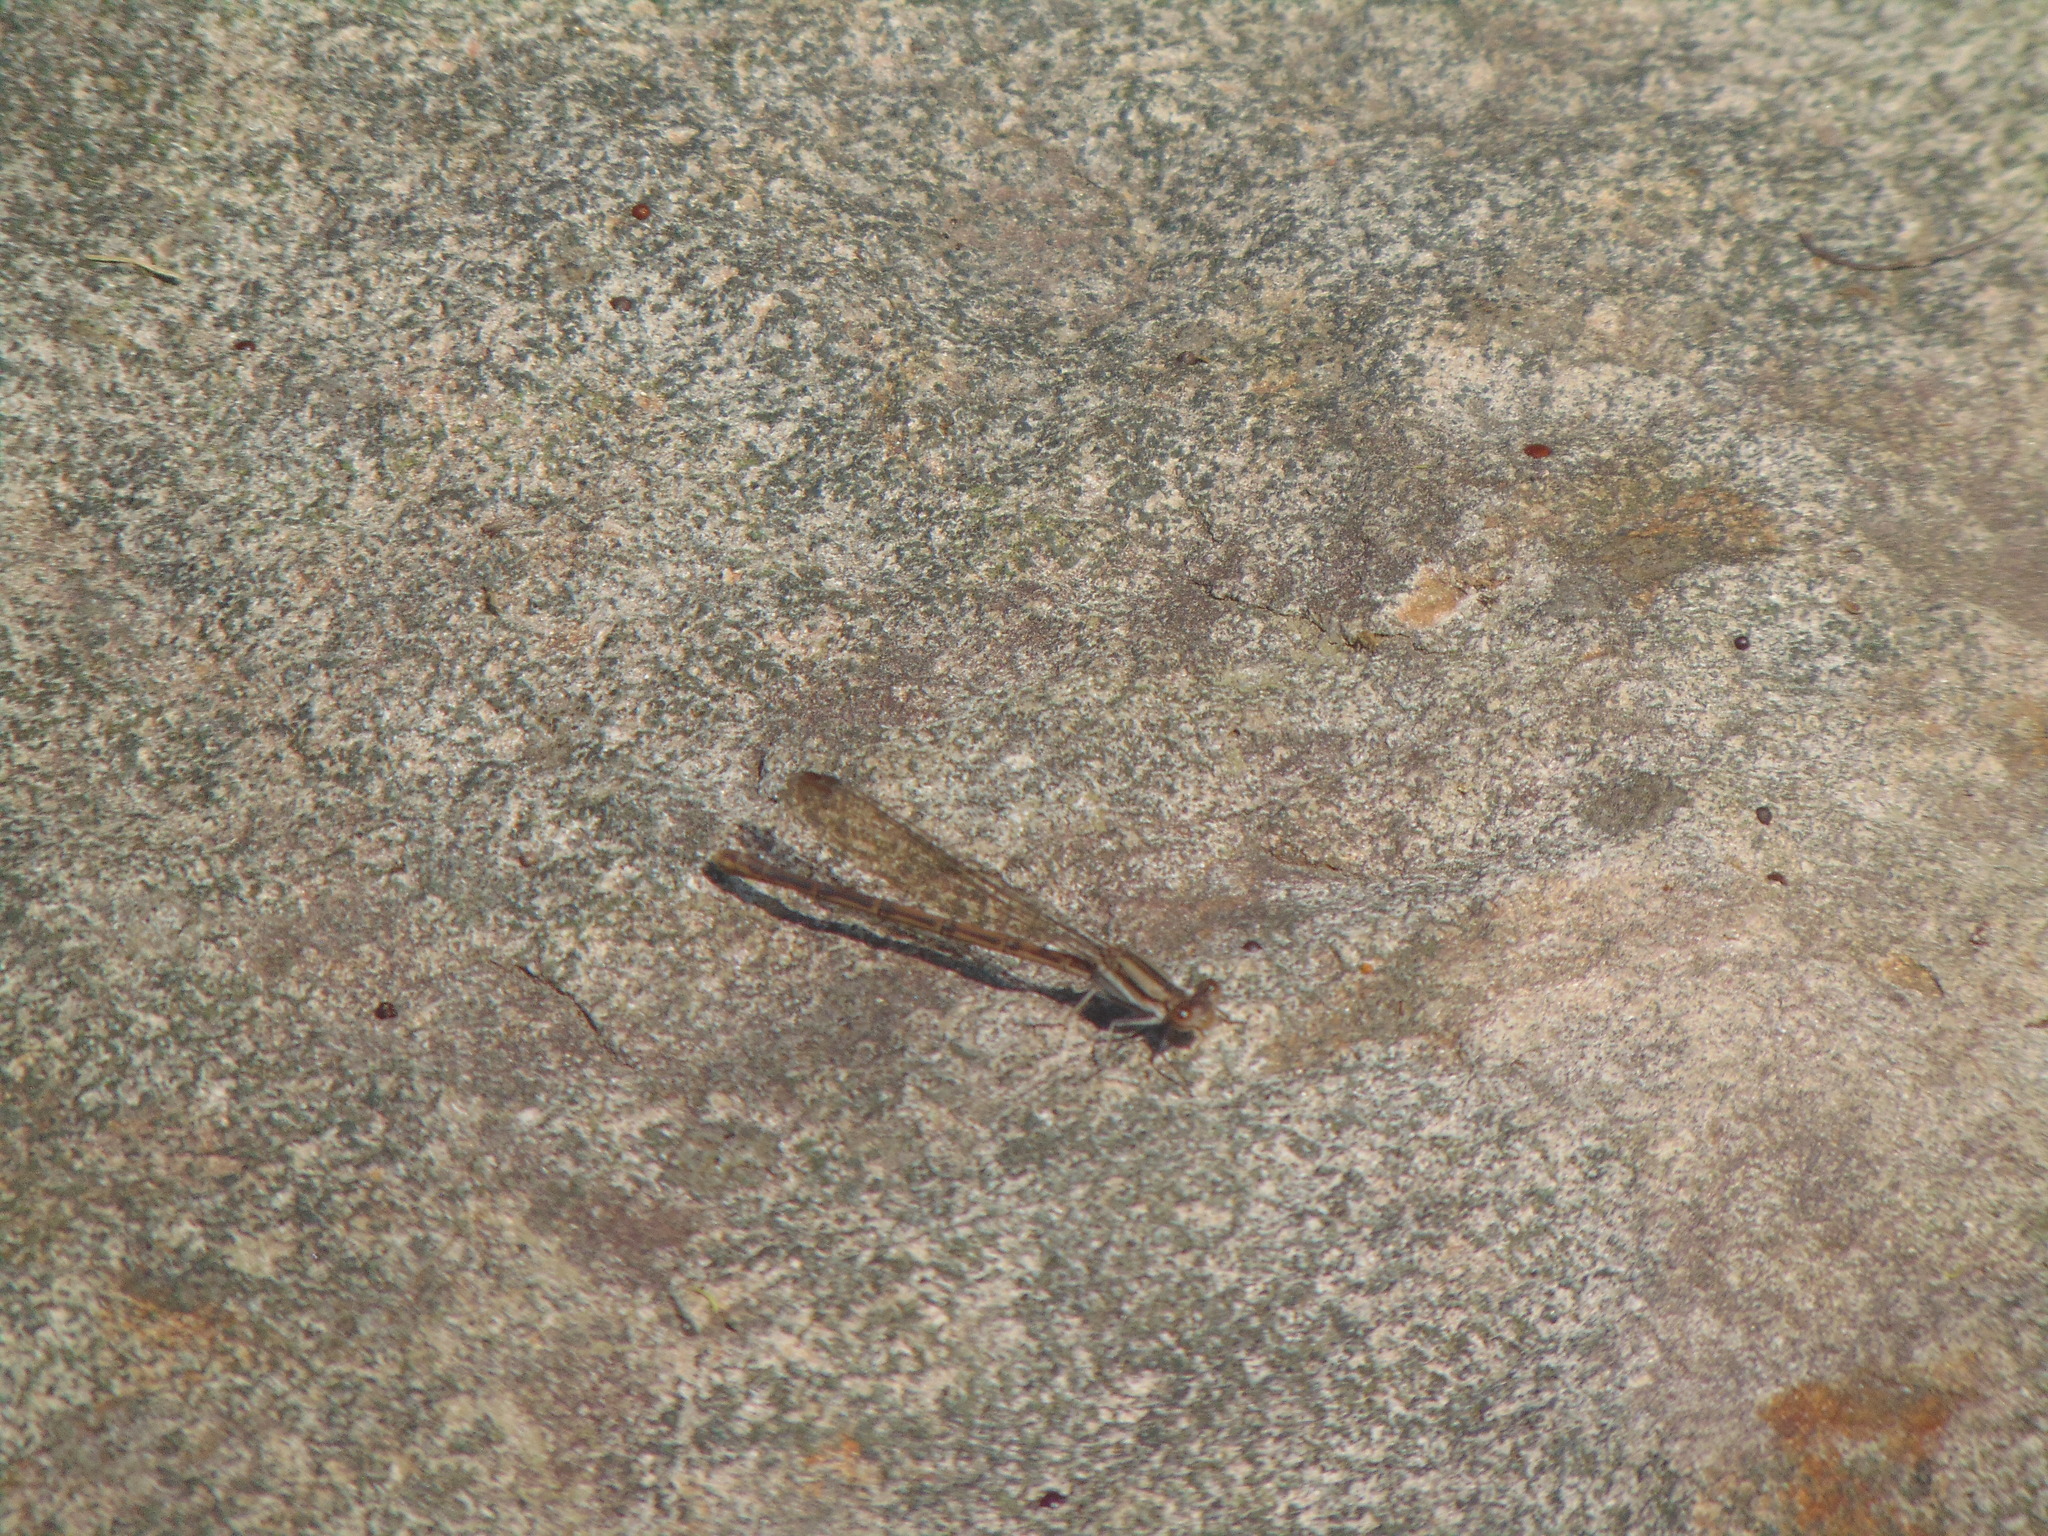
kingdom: Animalia
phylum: Arthropoda
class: Insecta
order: Odonata
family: Coenagrionidae
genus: Argia
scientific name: Argia fumipennis
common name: Variable dancer
